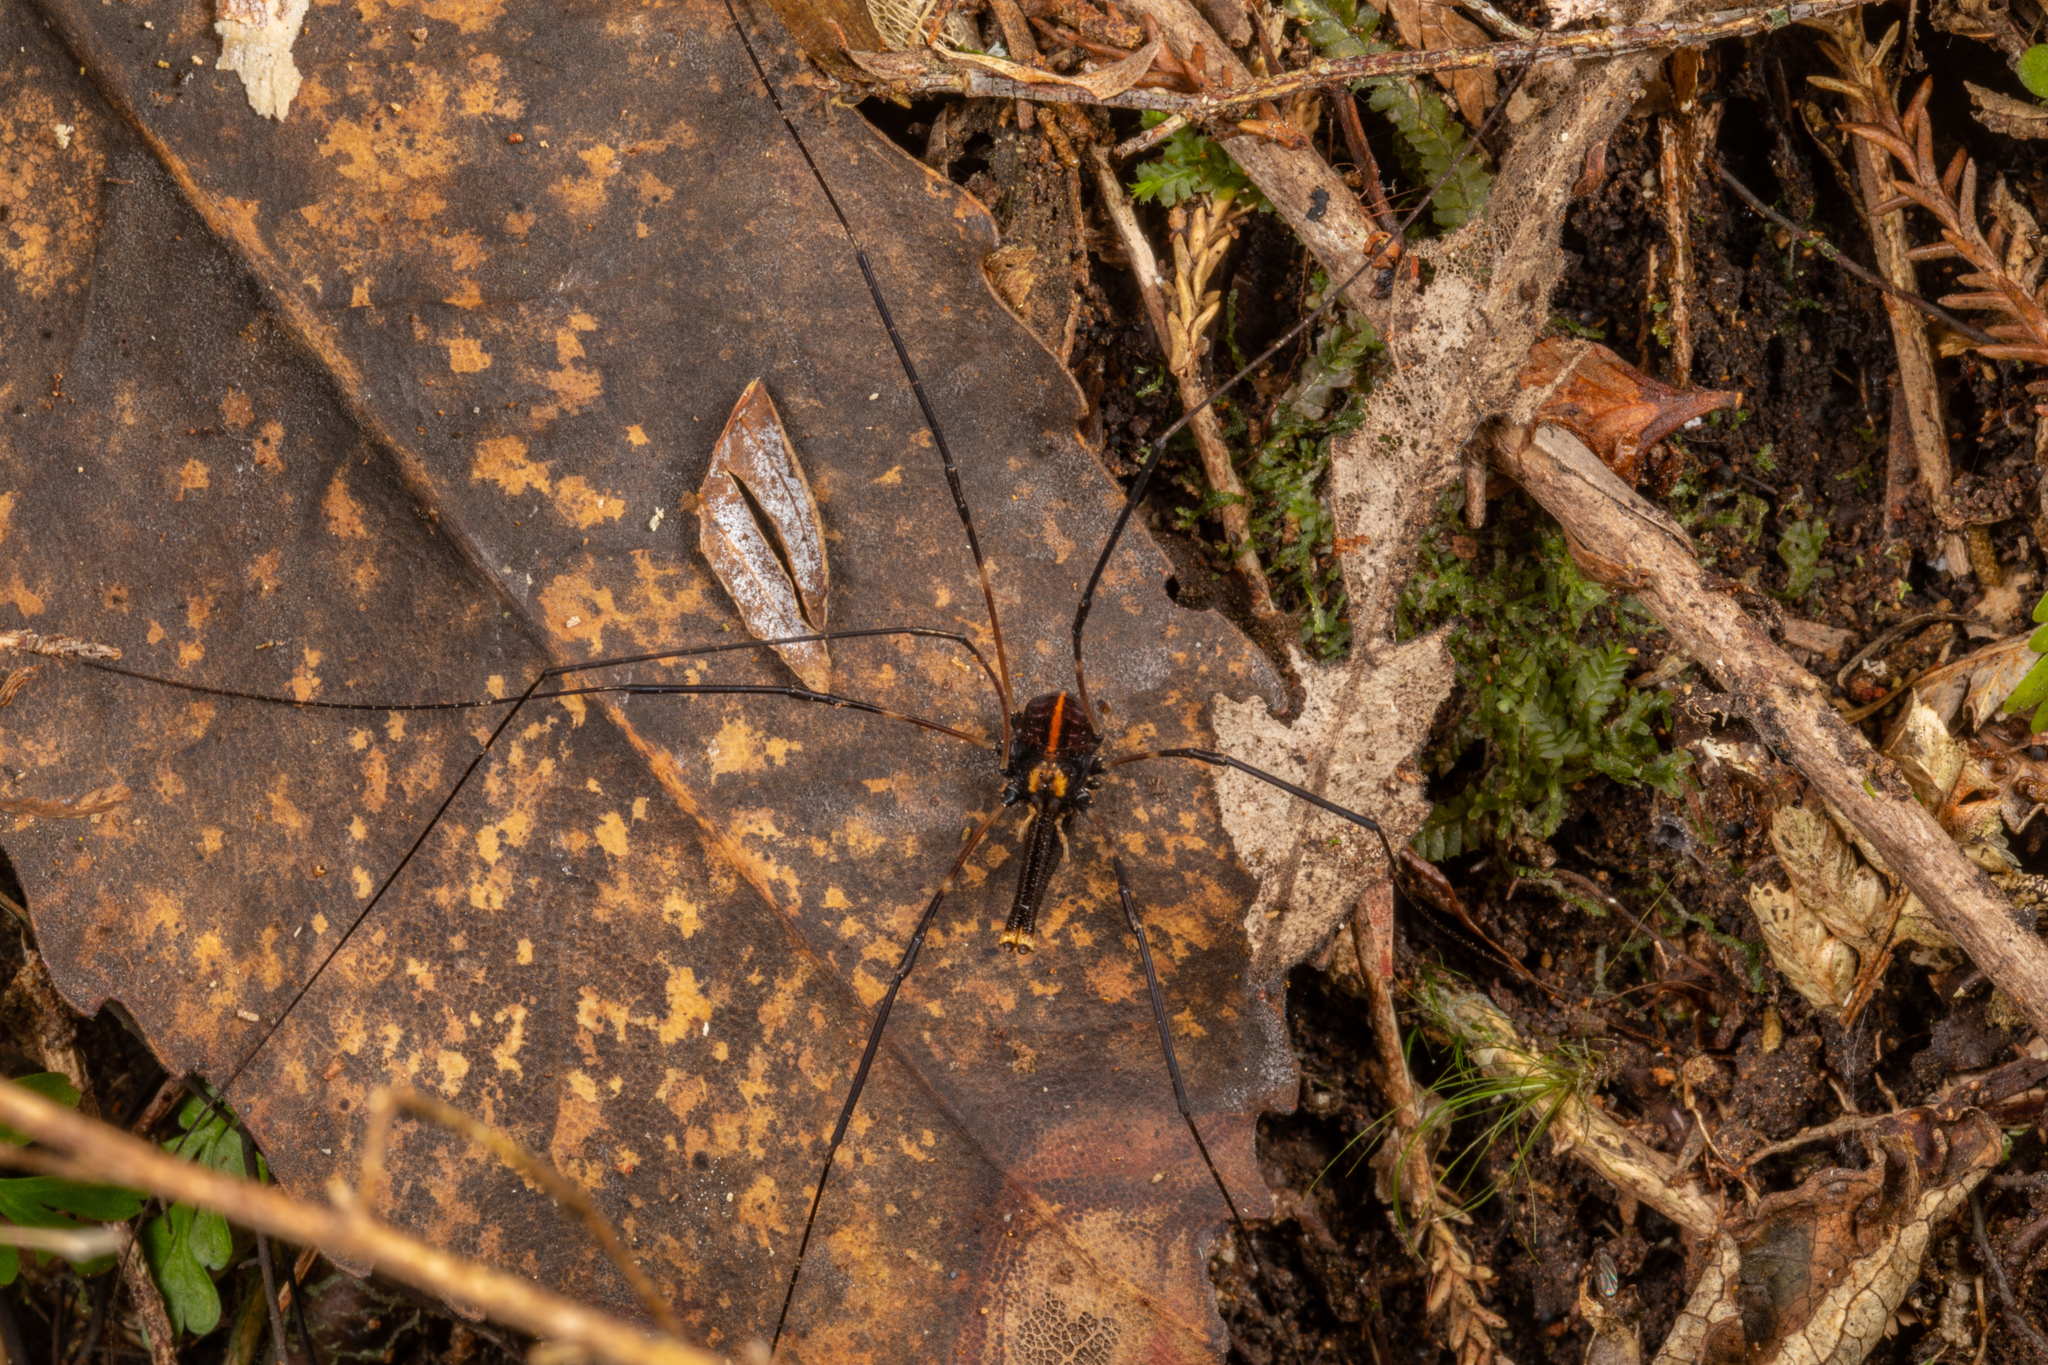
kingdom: Animalia
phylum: Arthropoda
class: Arachnida
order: Opiliones
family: Neopilionidae
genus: Forsteropsalis
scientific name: Forsteropsalis pureora
